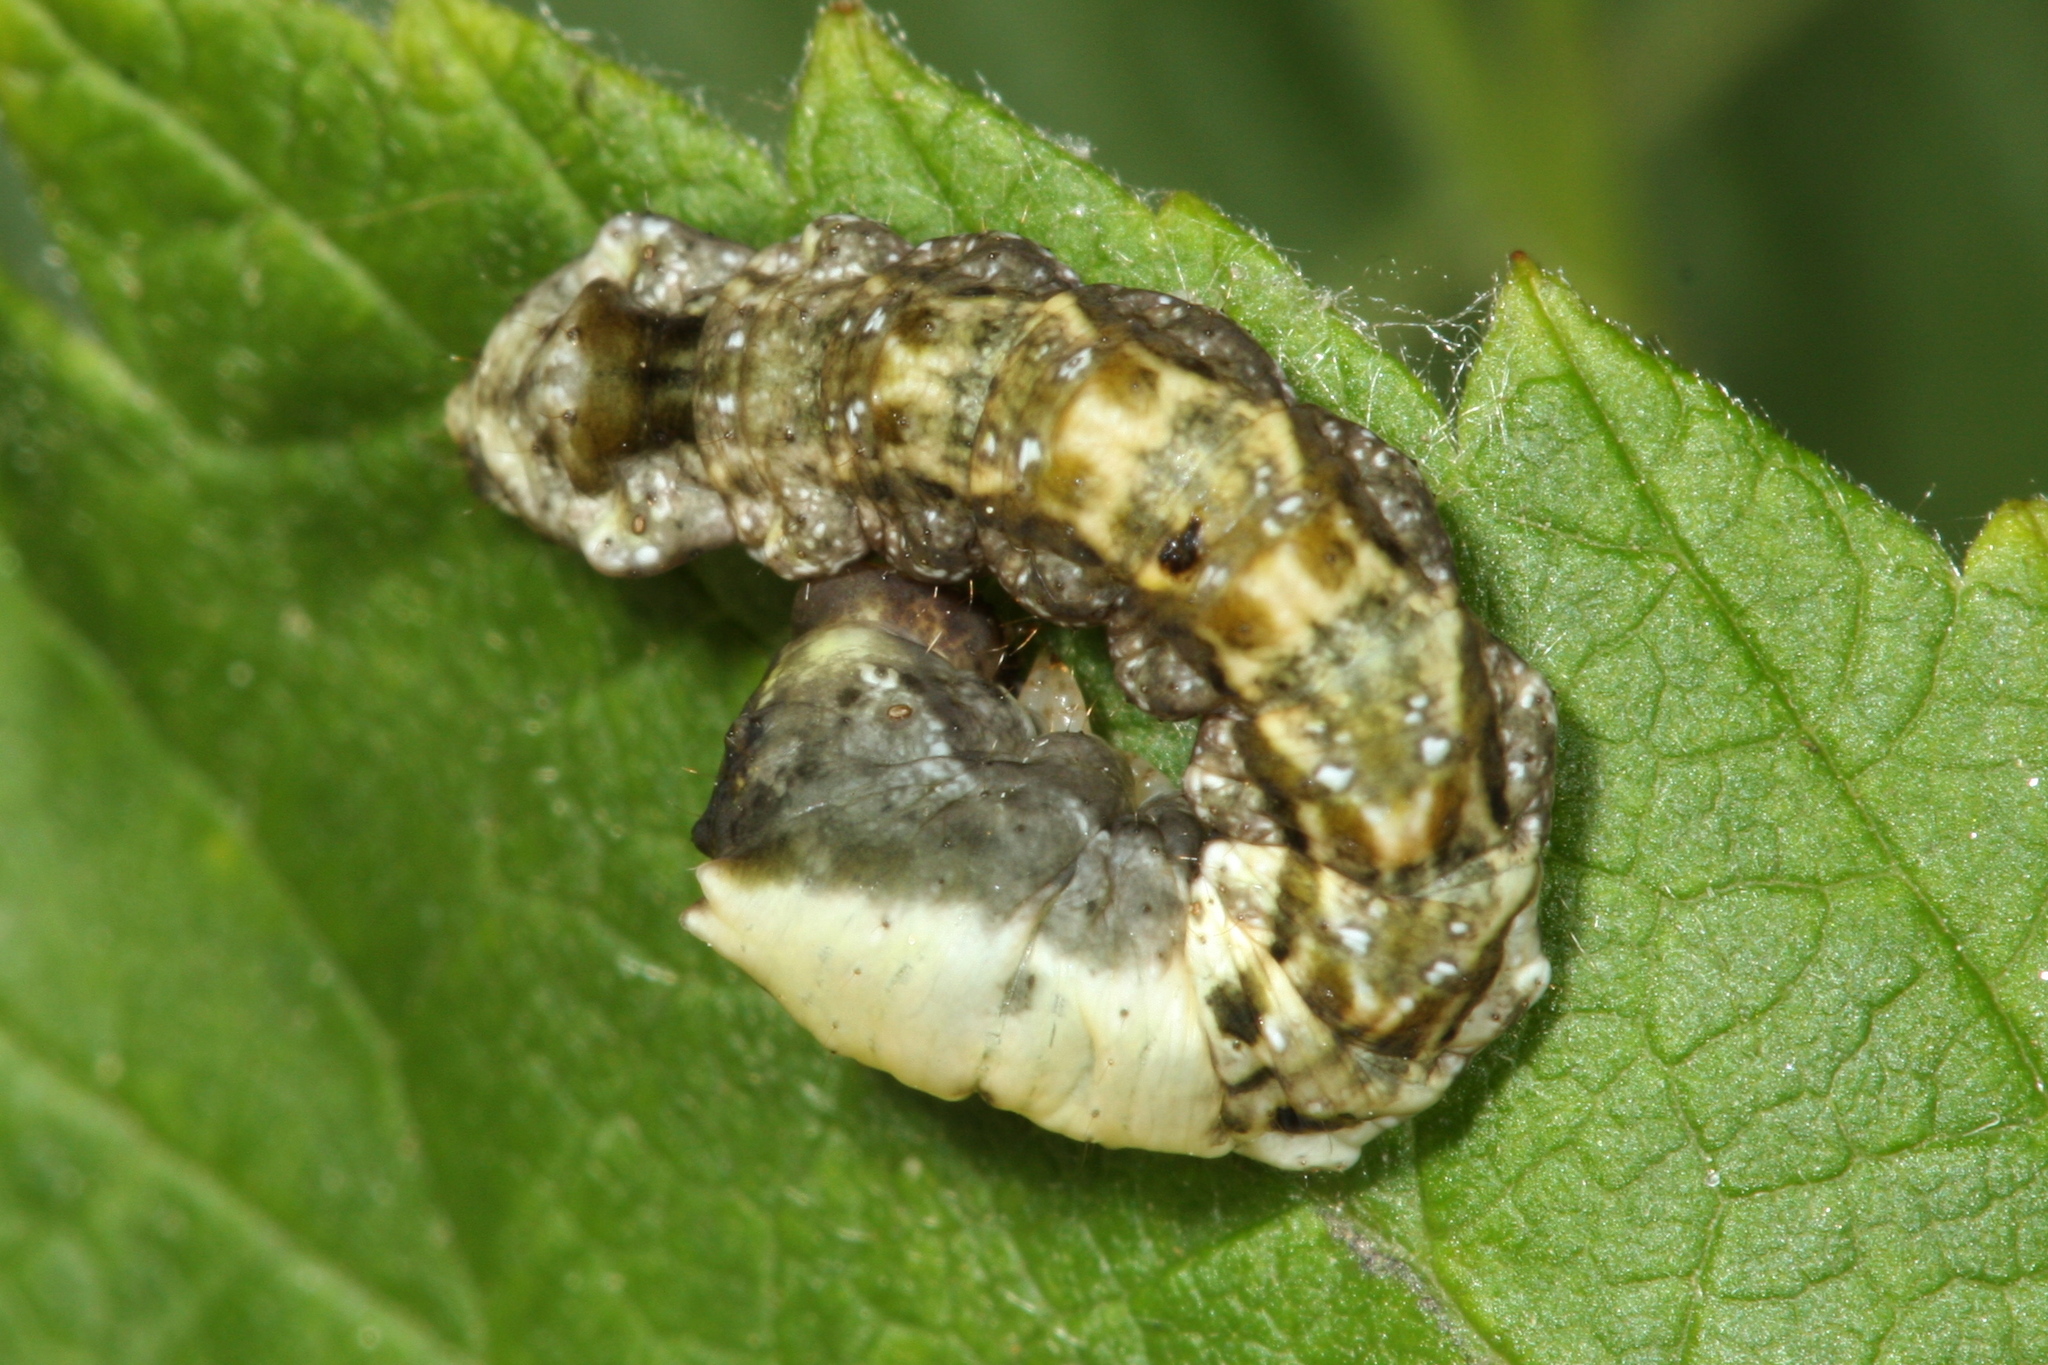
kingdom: Animalia
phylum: Arthropoda
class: Insecta
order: Lepidoptera
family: Drepanidae
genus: Thyatira
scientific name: Thyatira batis
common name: Peach blossom
